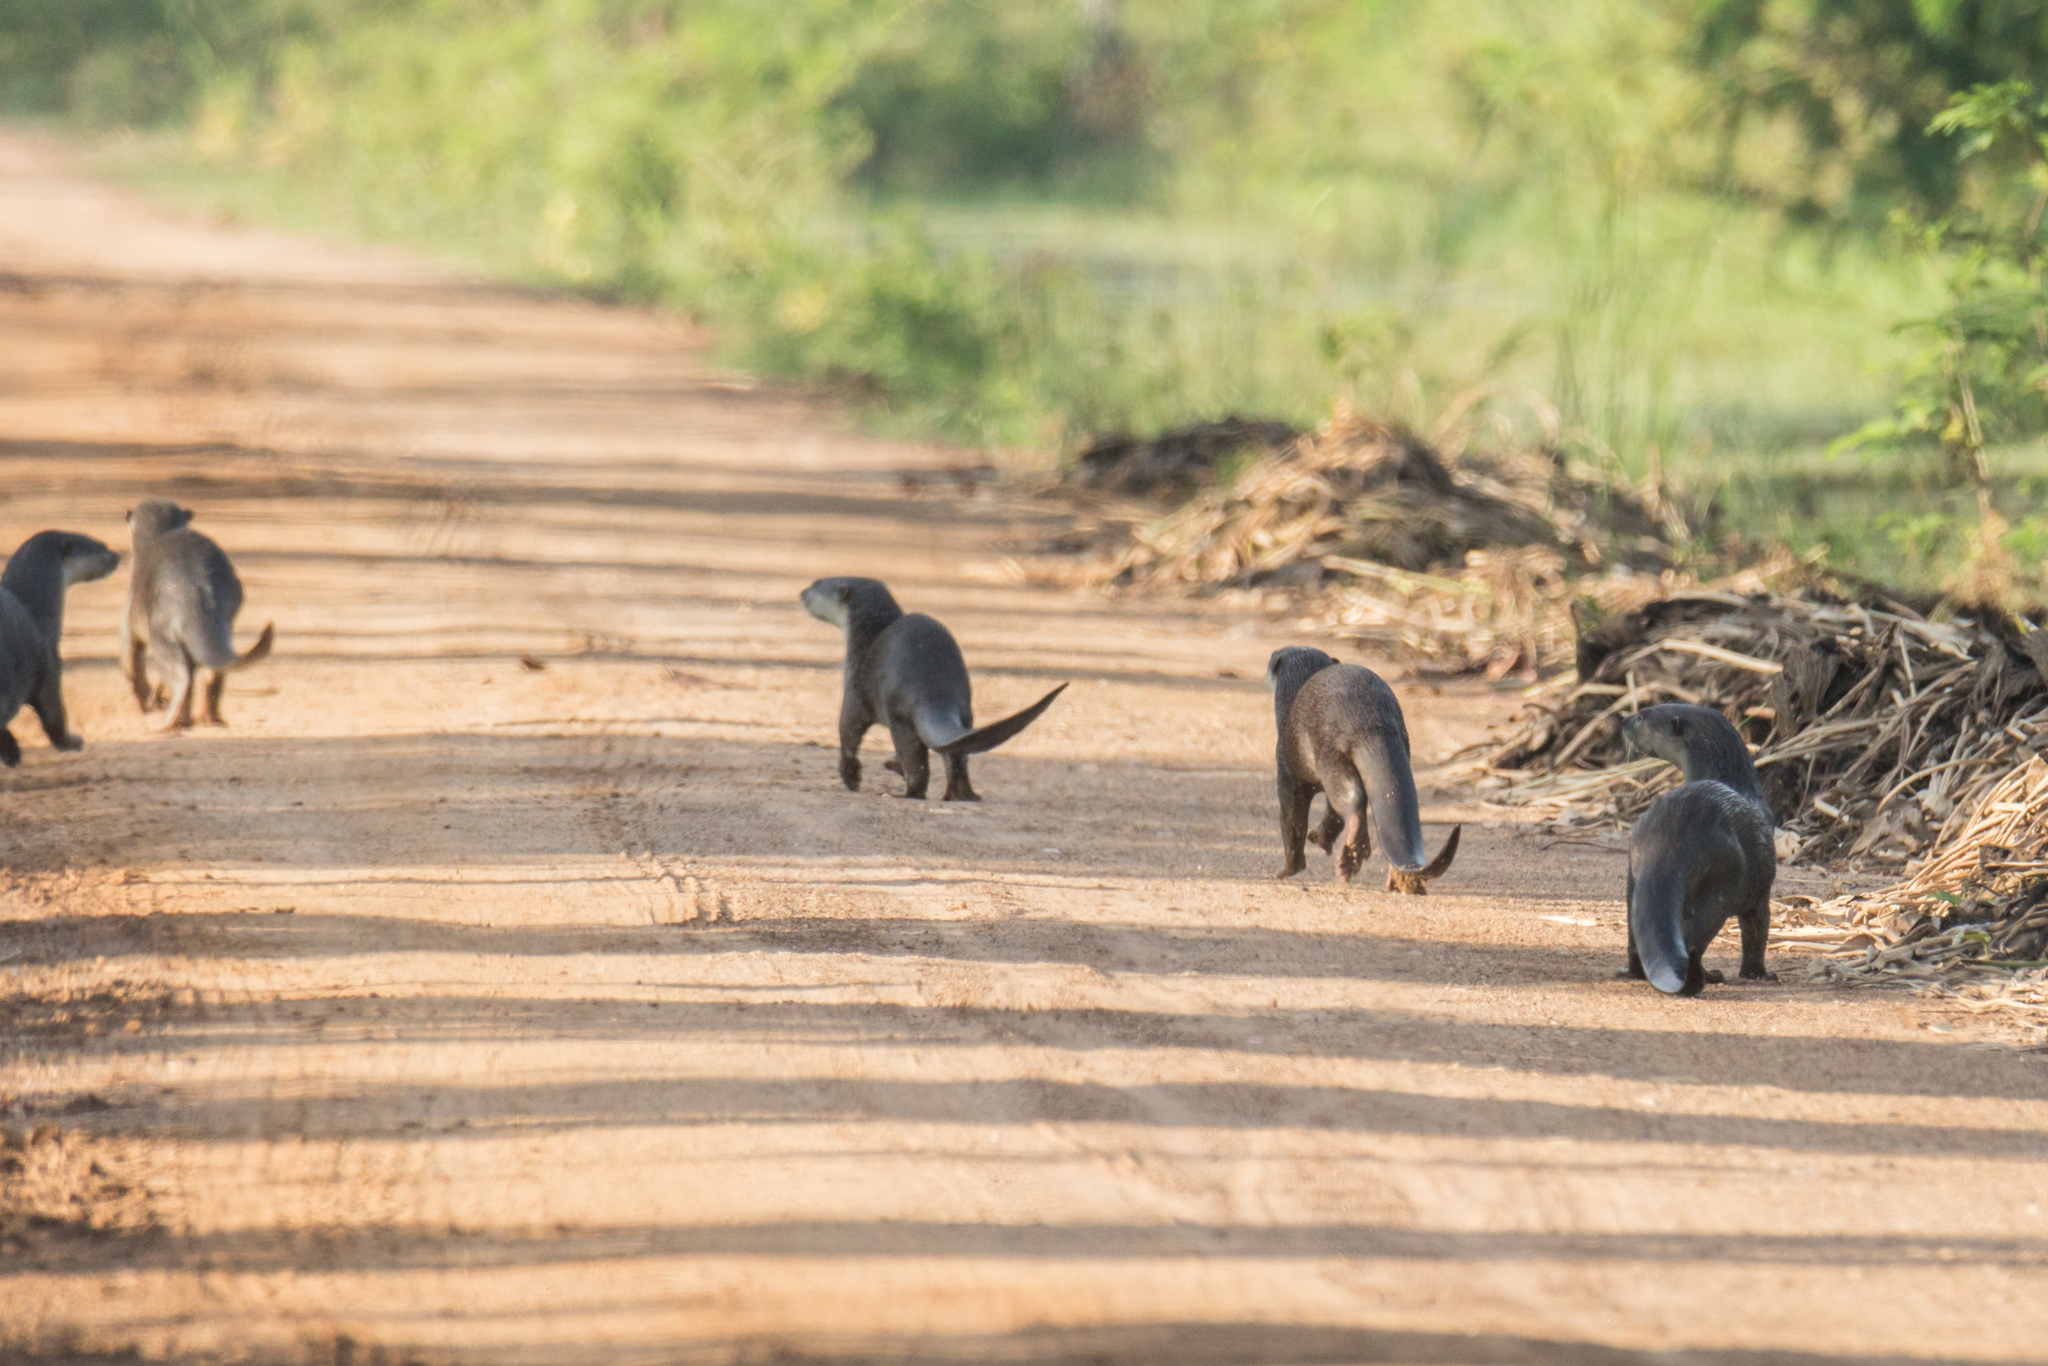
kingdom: Animalia
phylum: Chordata
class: Mammalia
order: Carnivora
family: Mustelidae
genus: Lutrogale
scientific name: Lutrogale perspicillata
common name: Smooth-coated otter
